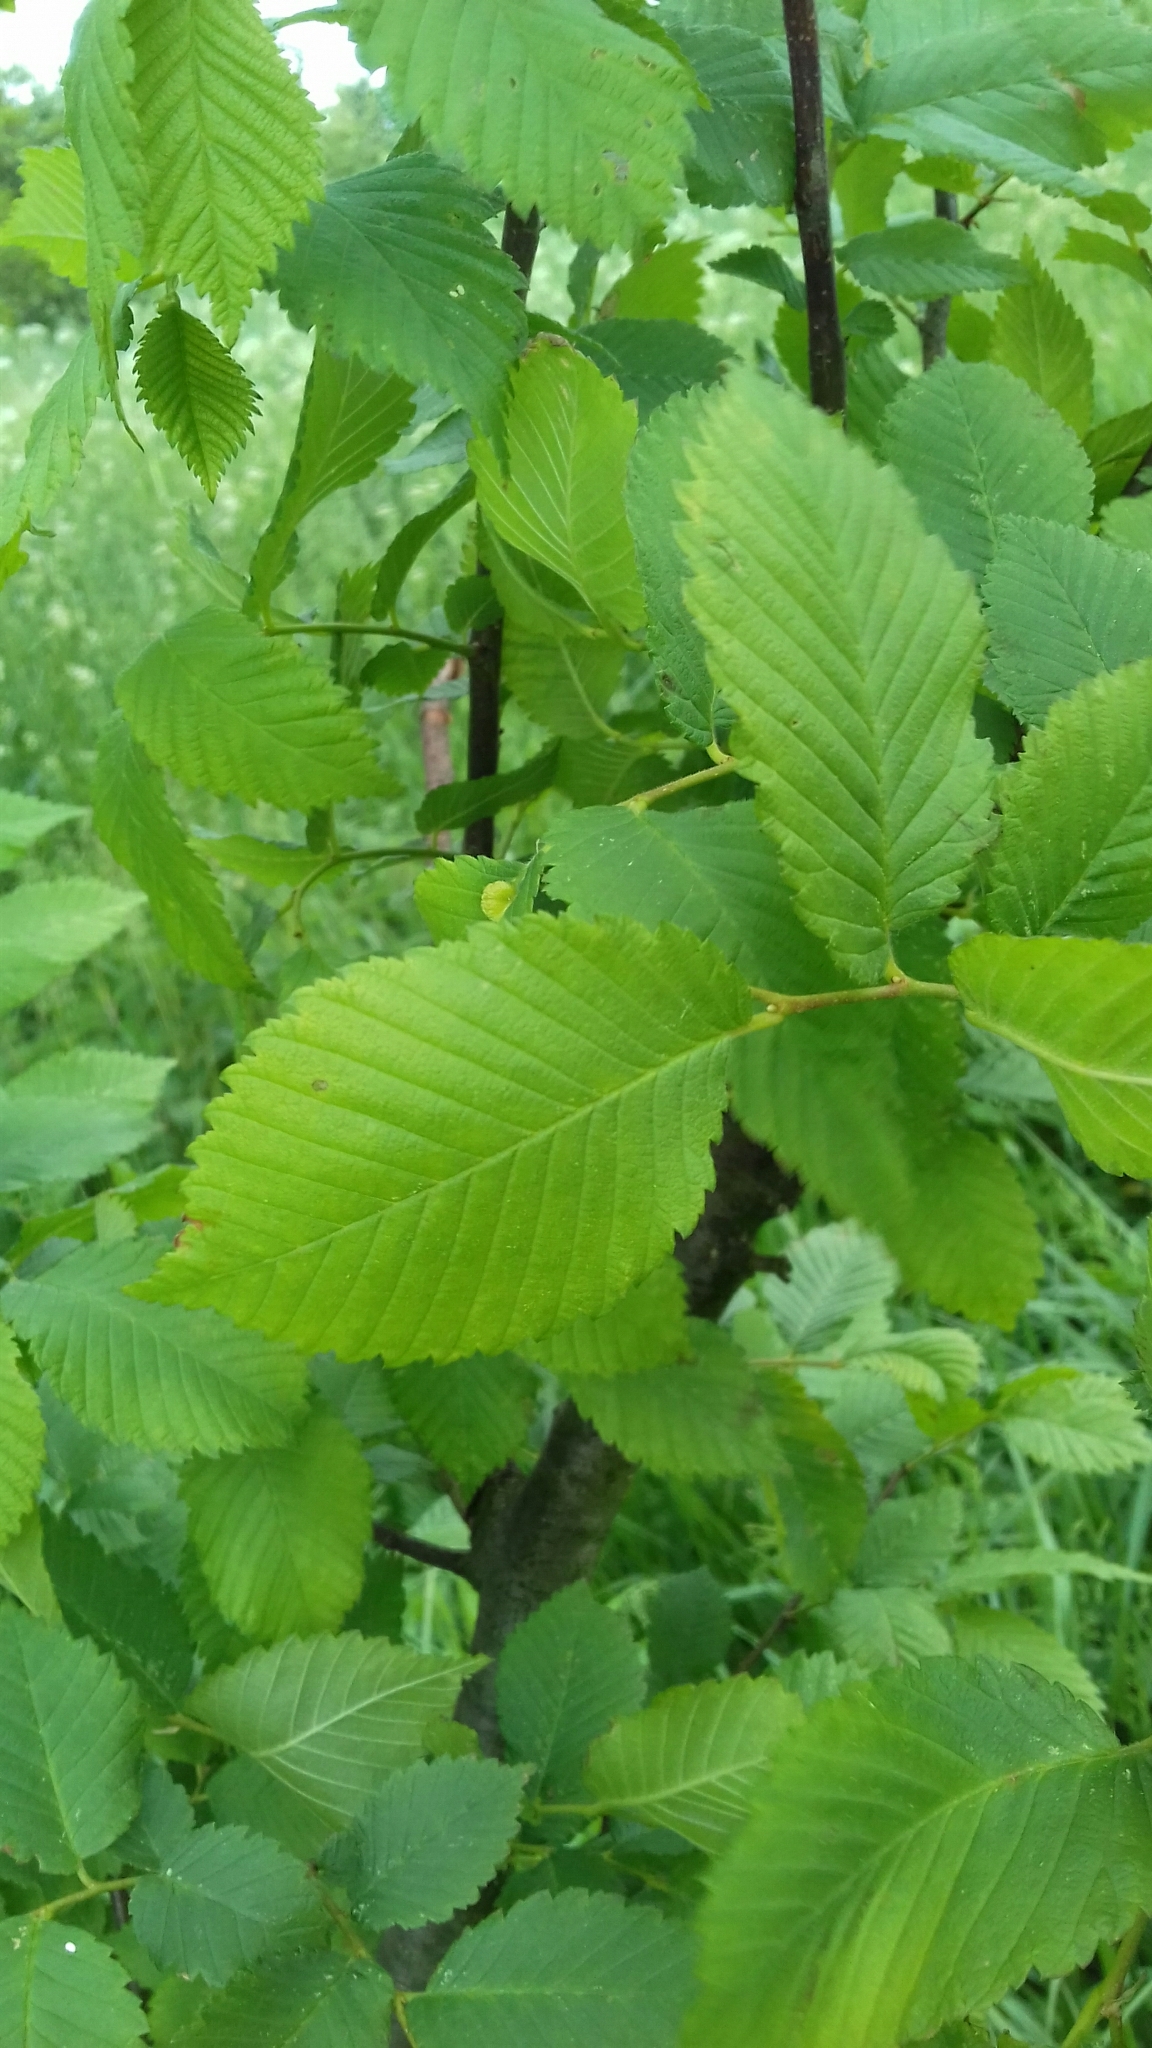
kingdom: Plantae
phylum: Tracheophyta
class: Magnoliopsida
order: Rosales
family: Ulmaceae
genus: Ulmus
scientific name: Ulmus minor
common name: Small-leaved elm
